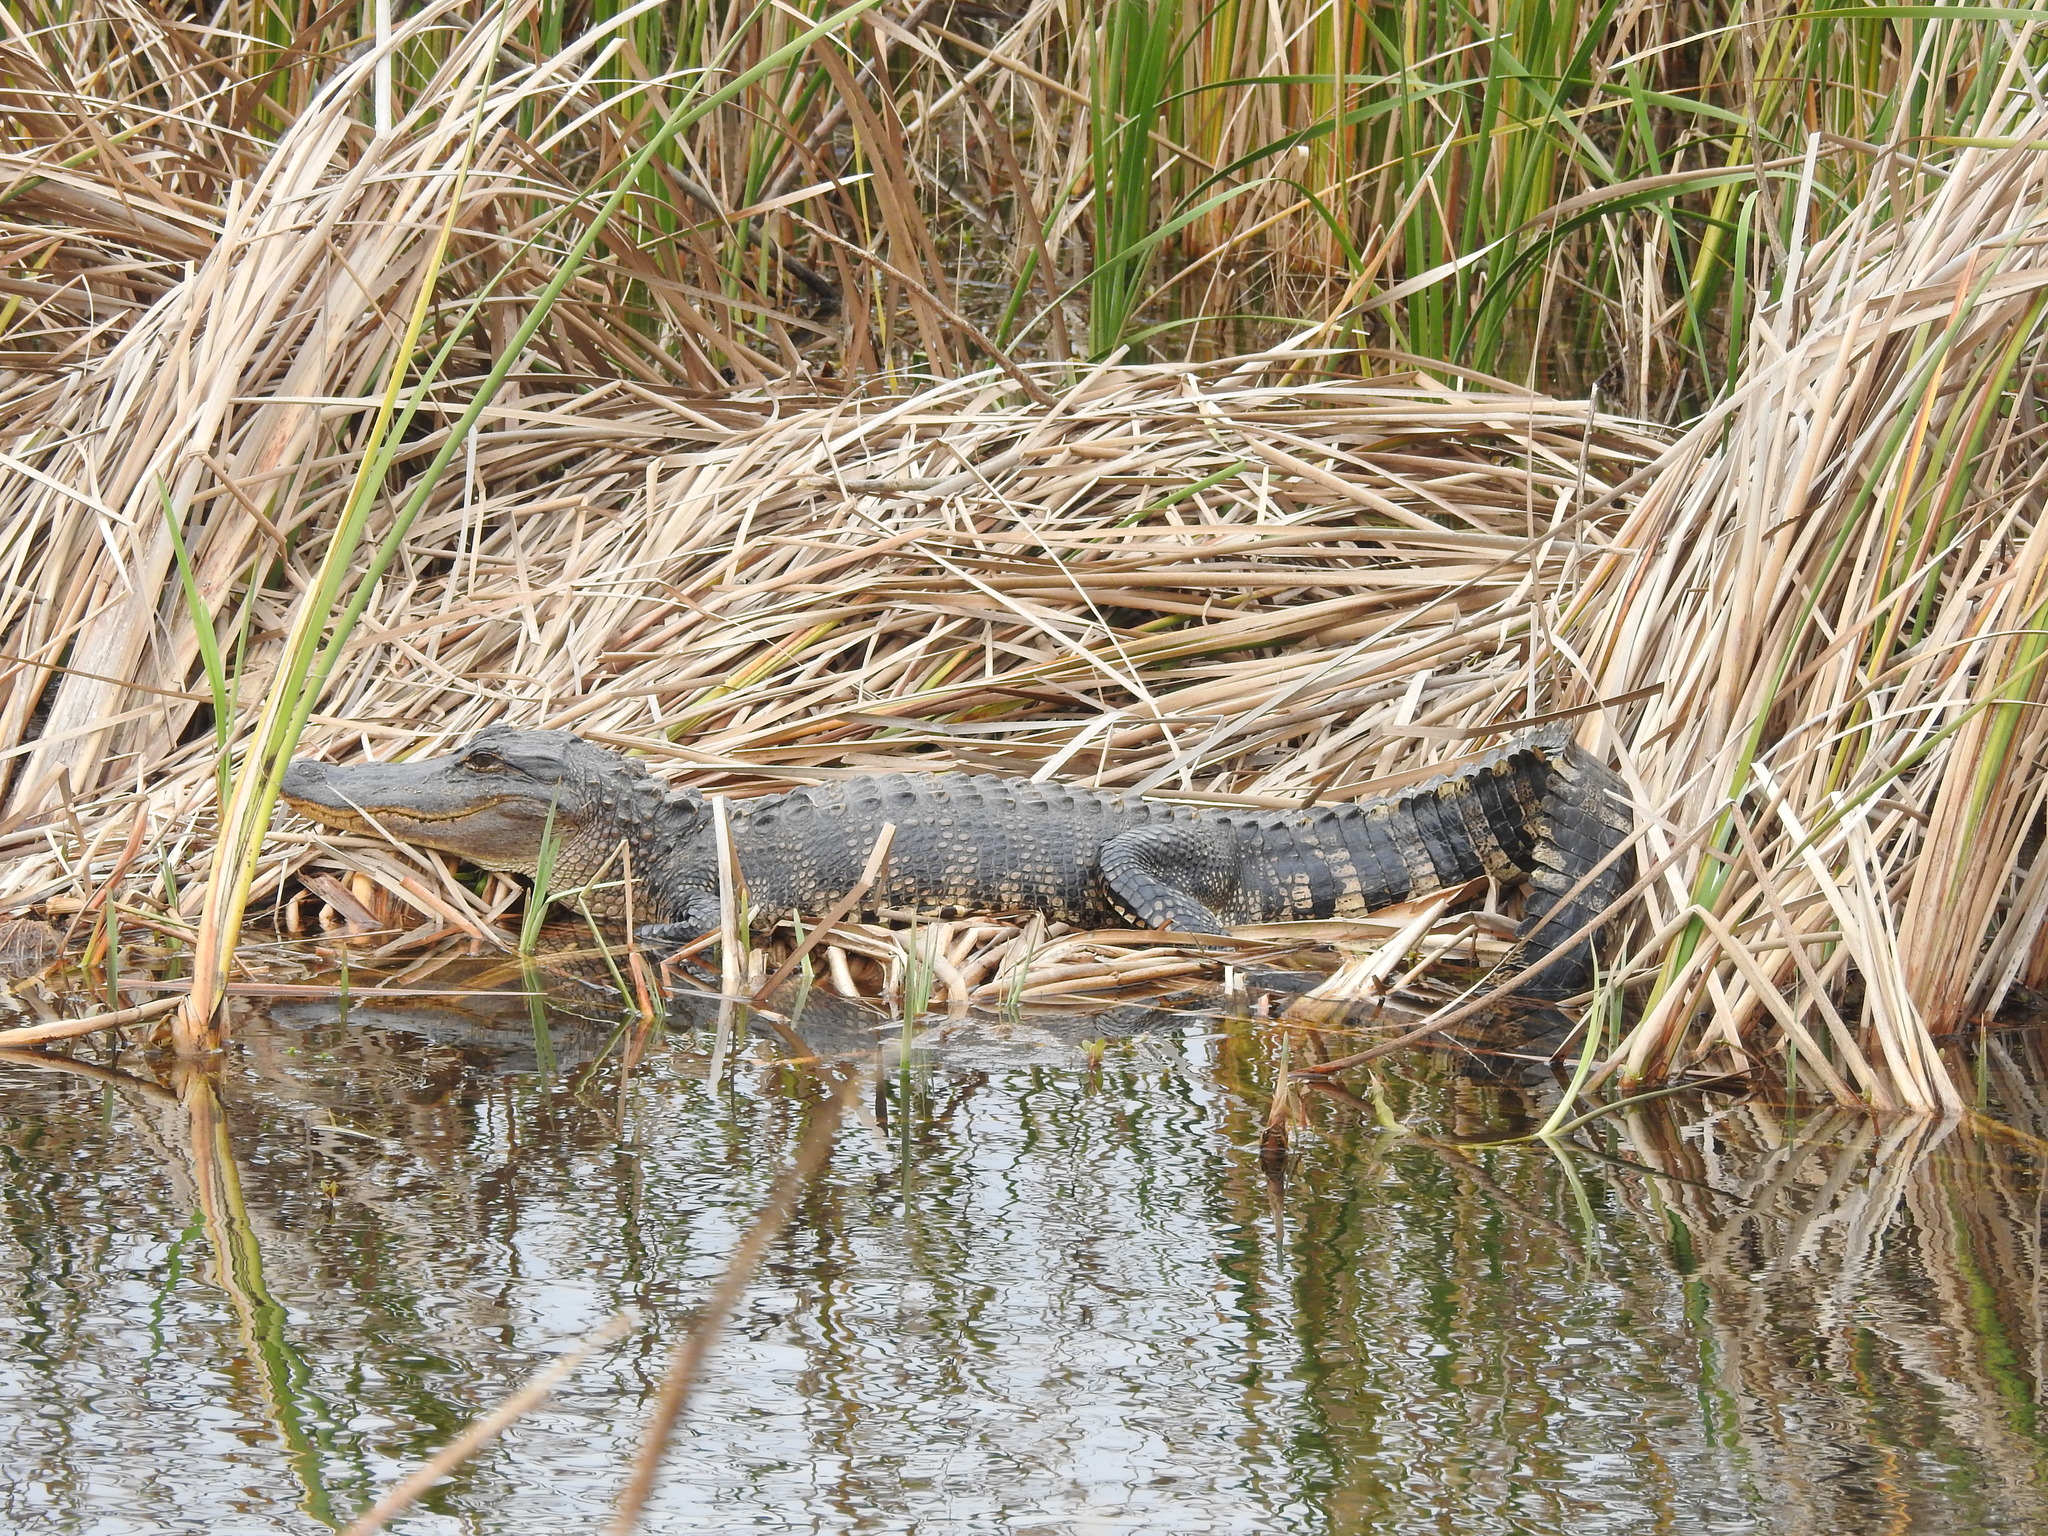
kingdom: Animalia
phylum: Chordata
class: Crocodylia
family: Alligatoridae
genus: Alligator
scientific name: Alligator mississippiensis
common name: American alligator
